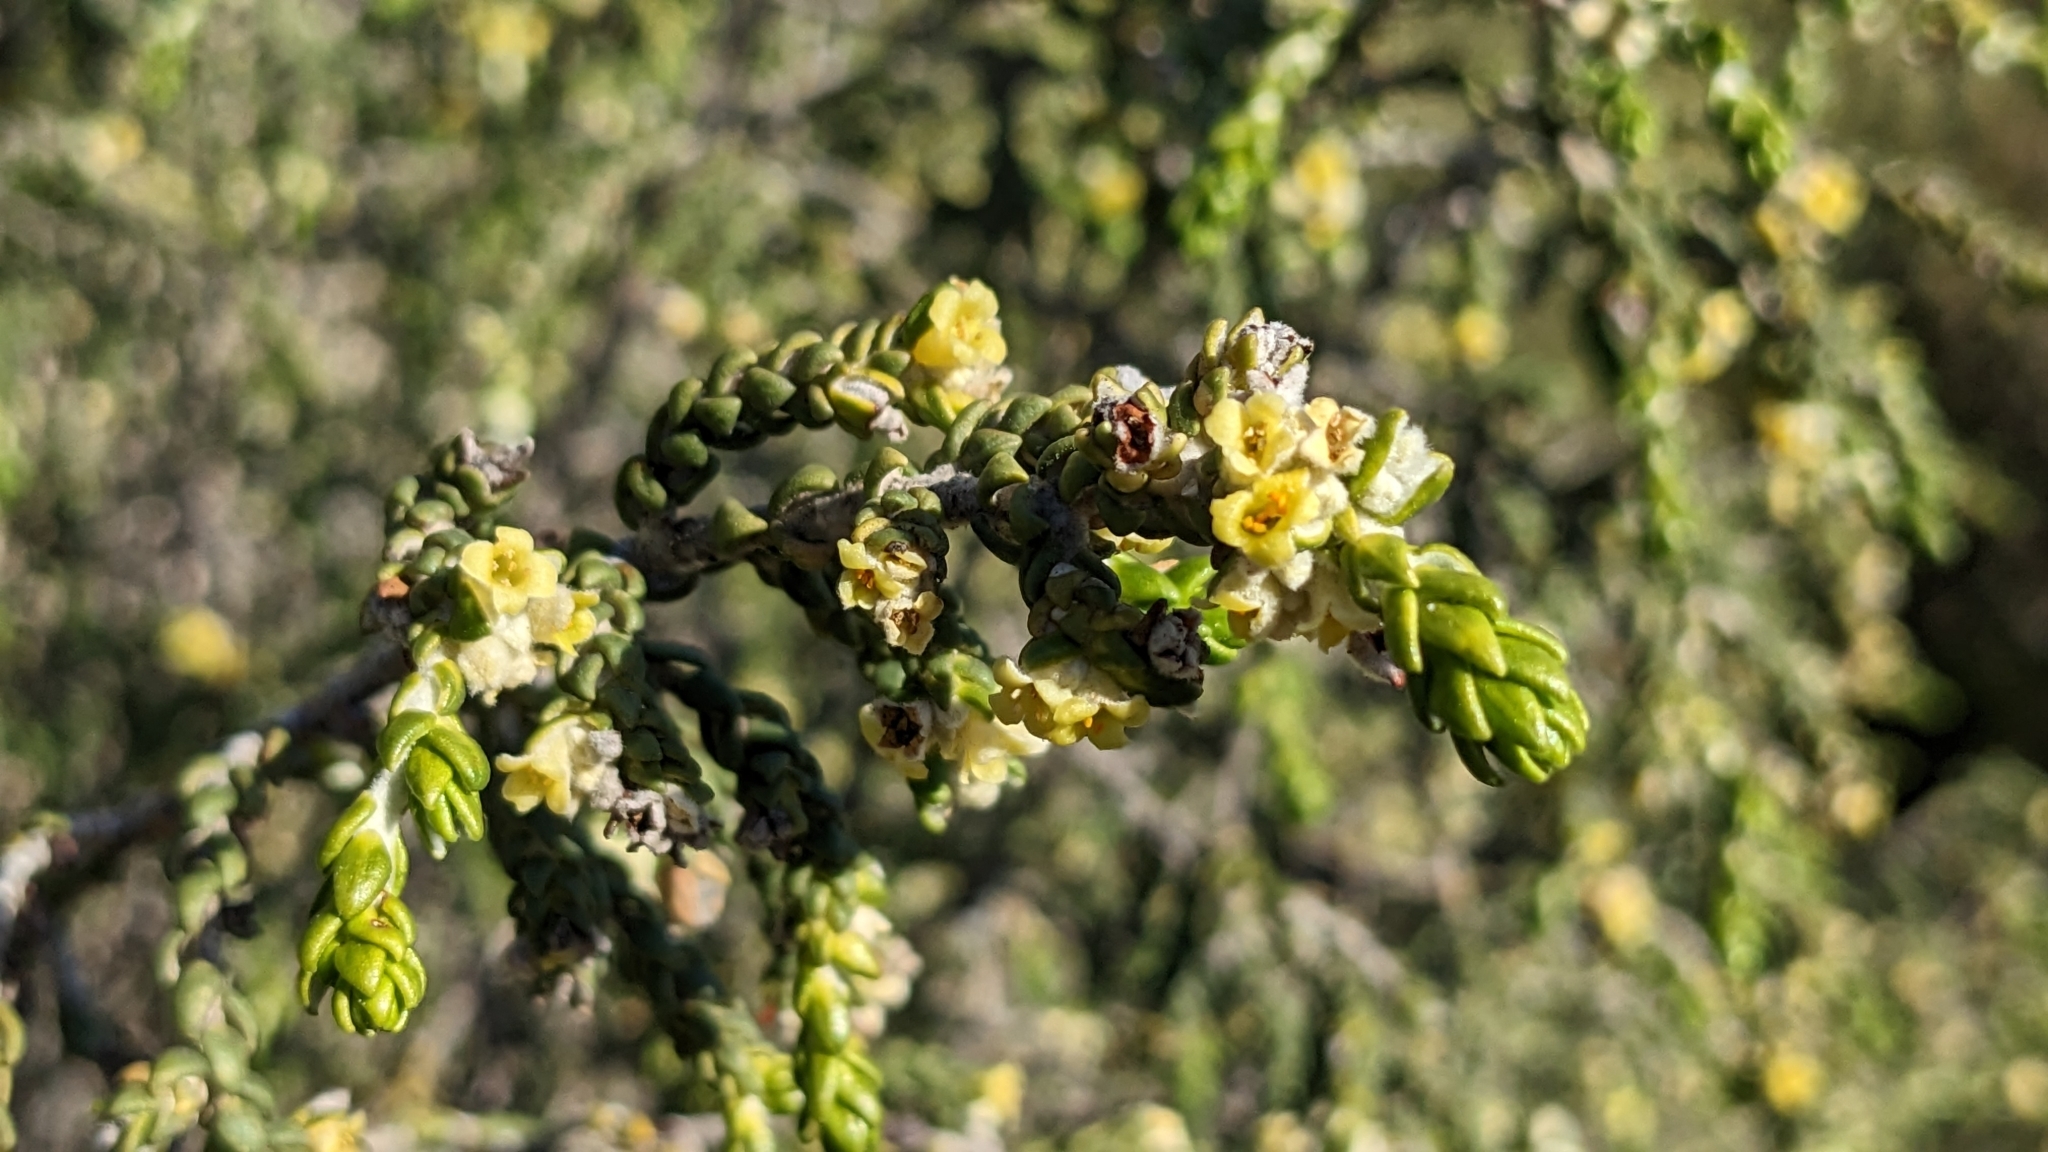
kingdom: Plantae
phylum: Tracheophyta
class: Magnoliopsida
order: Malvales
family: Thymelaeaceae
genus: Thymelaea
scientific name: Thymelaea hirsuta
